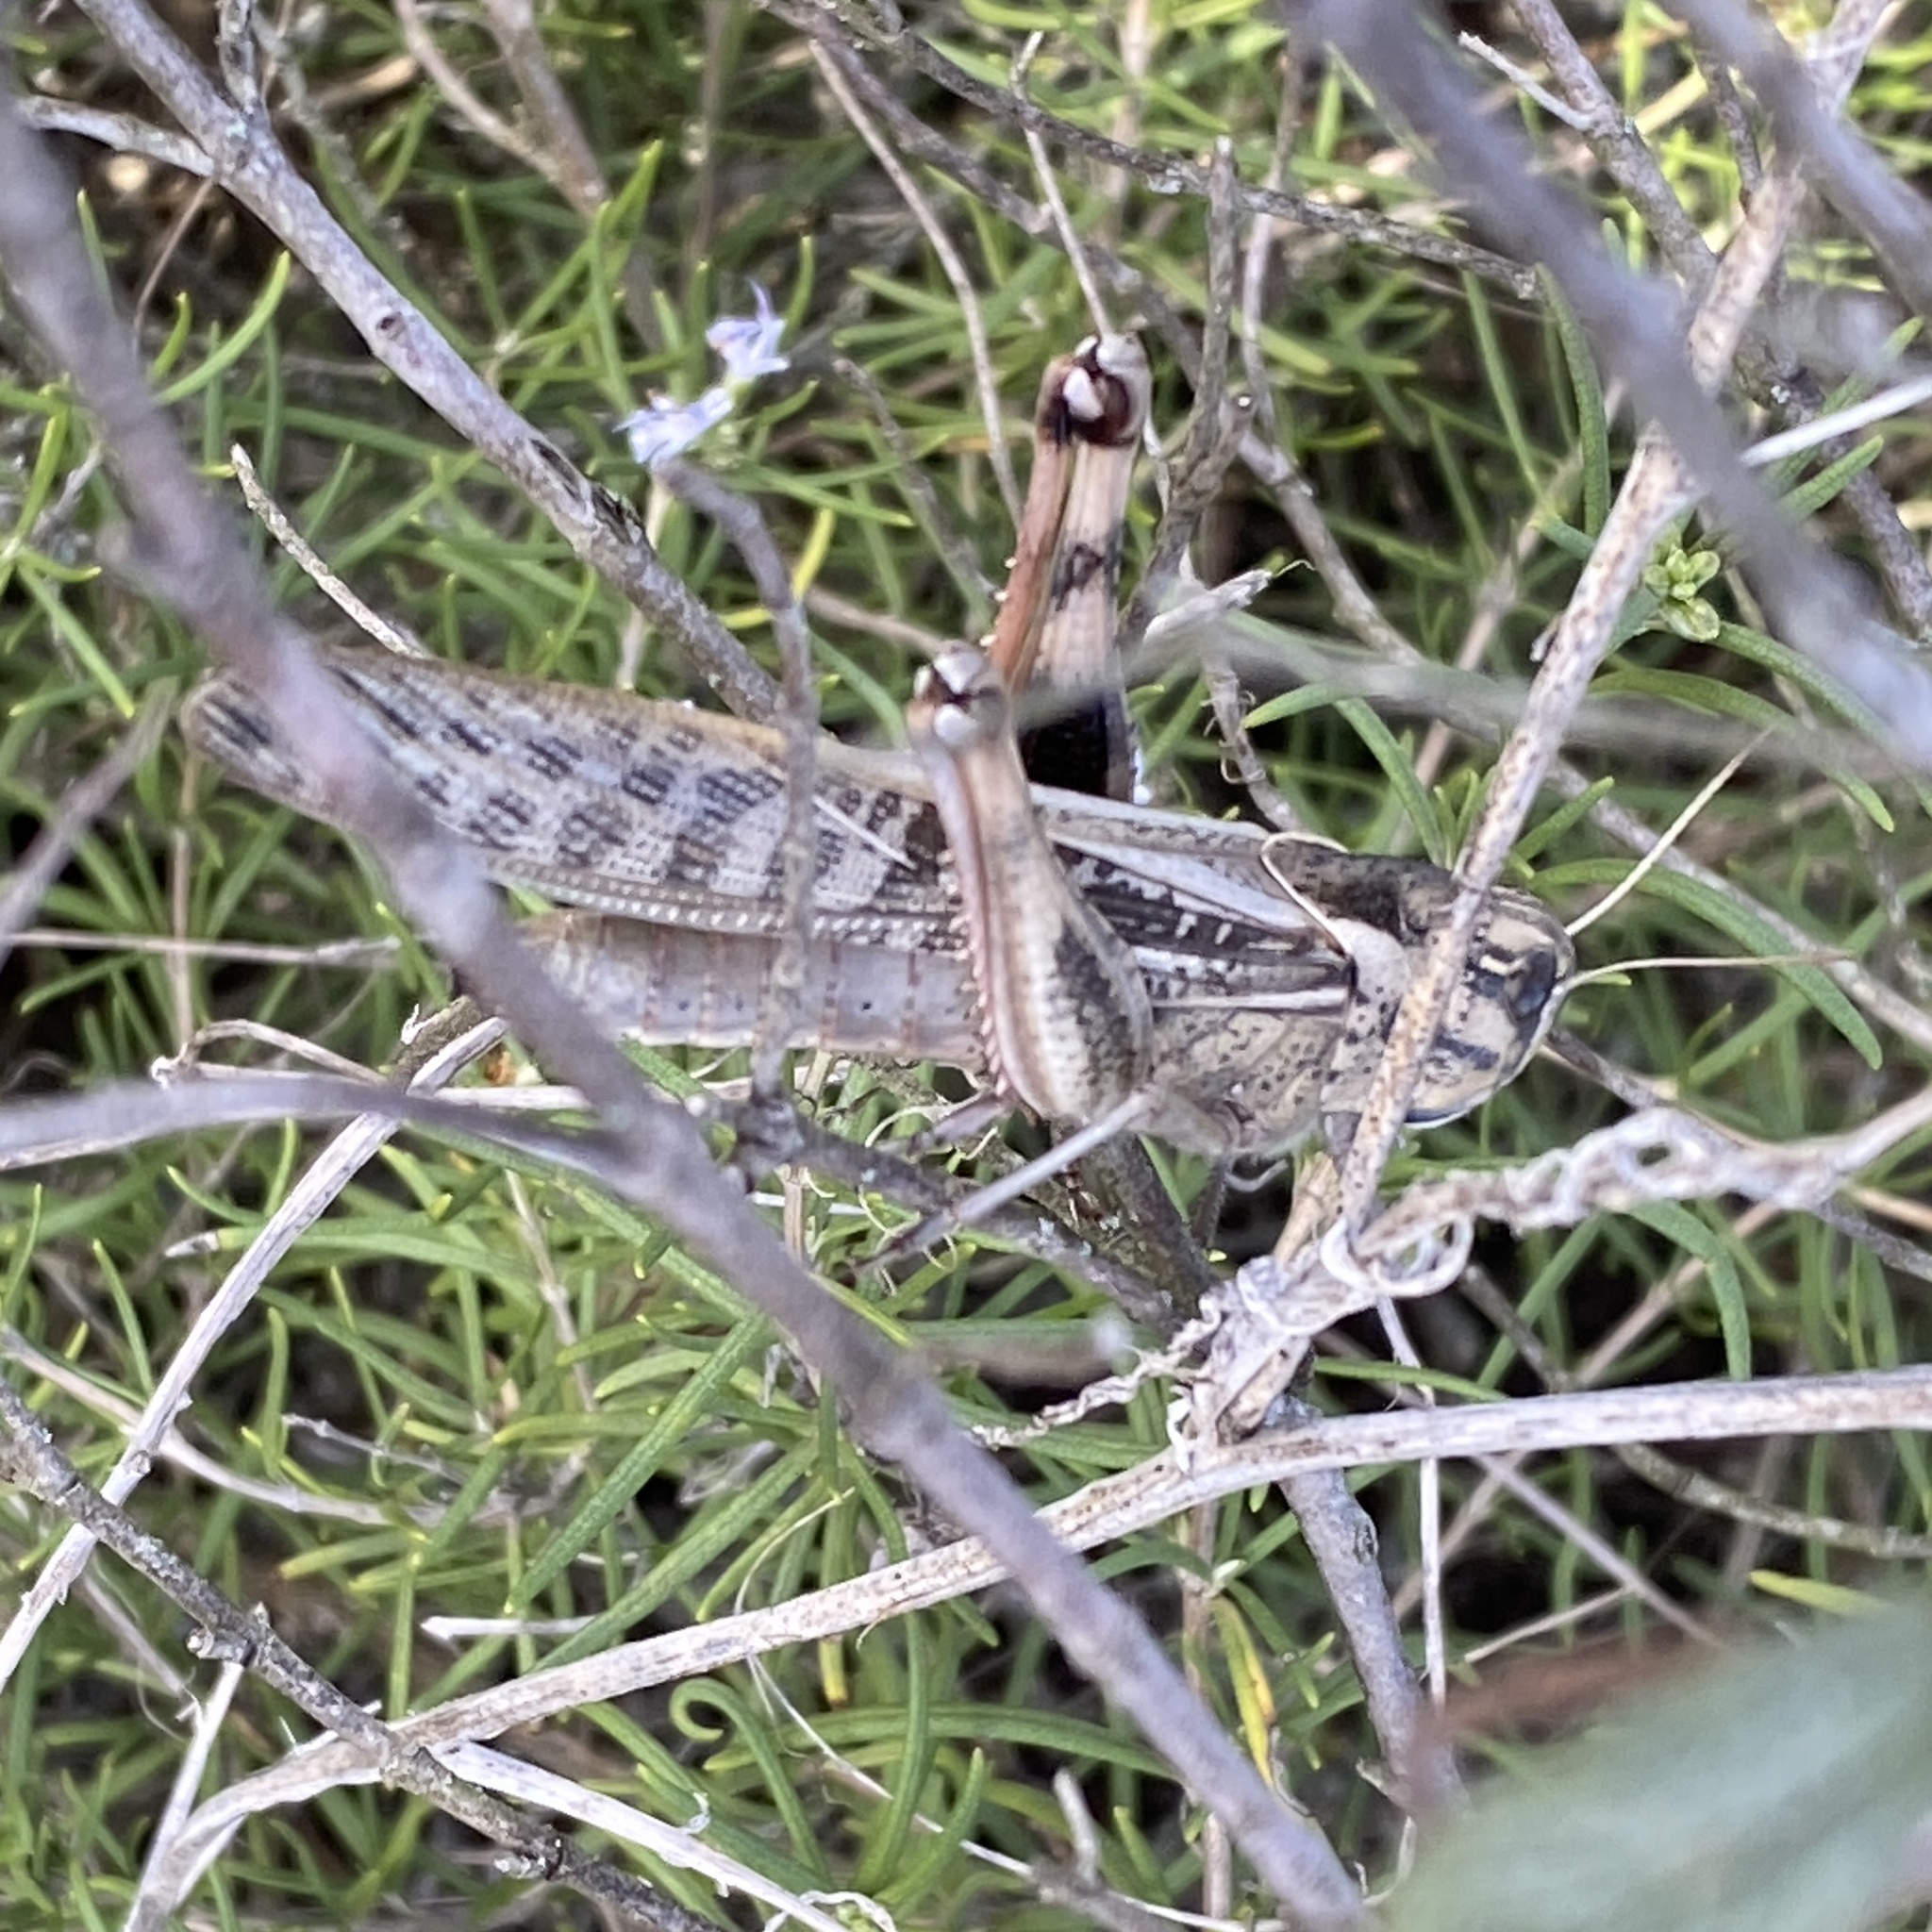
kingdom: Animalia
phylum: Arthropoda
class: Insecta
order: Orthoptera
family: Acrididae
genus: Locusta
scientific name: Locusta migratoria
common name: Migratory locust
